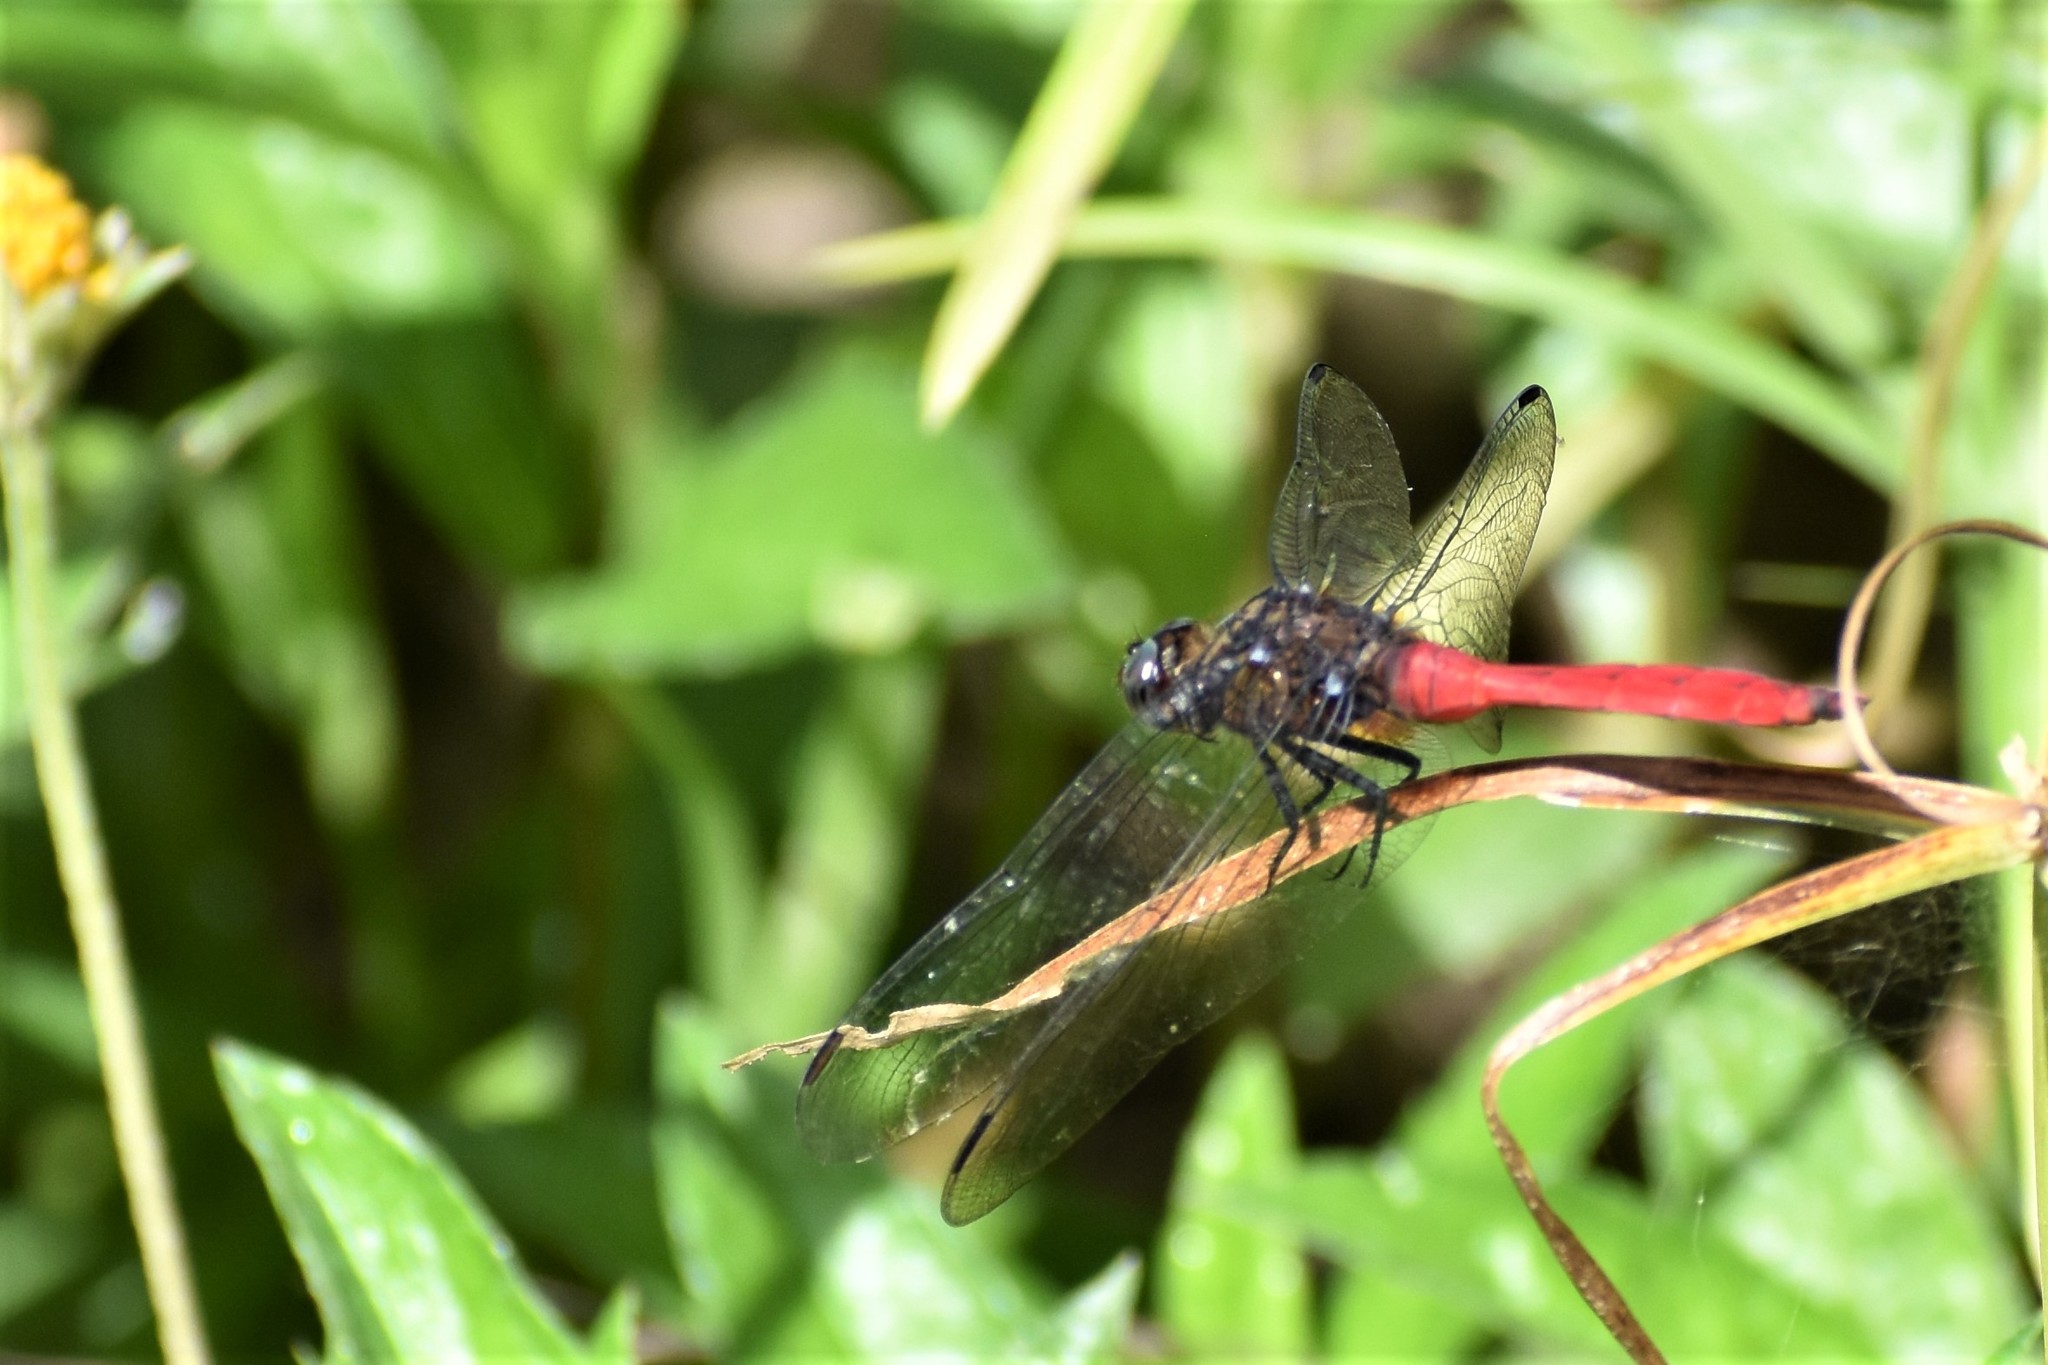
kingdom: Animalia
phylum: Arthropoda
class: Insecta
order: Odonata
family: Libellulidae
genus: Orthetrum
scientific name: Orthetrum villosovittatum
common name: Firery skimmer
